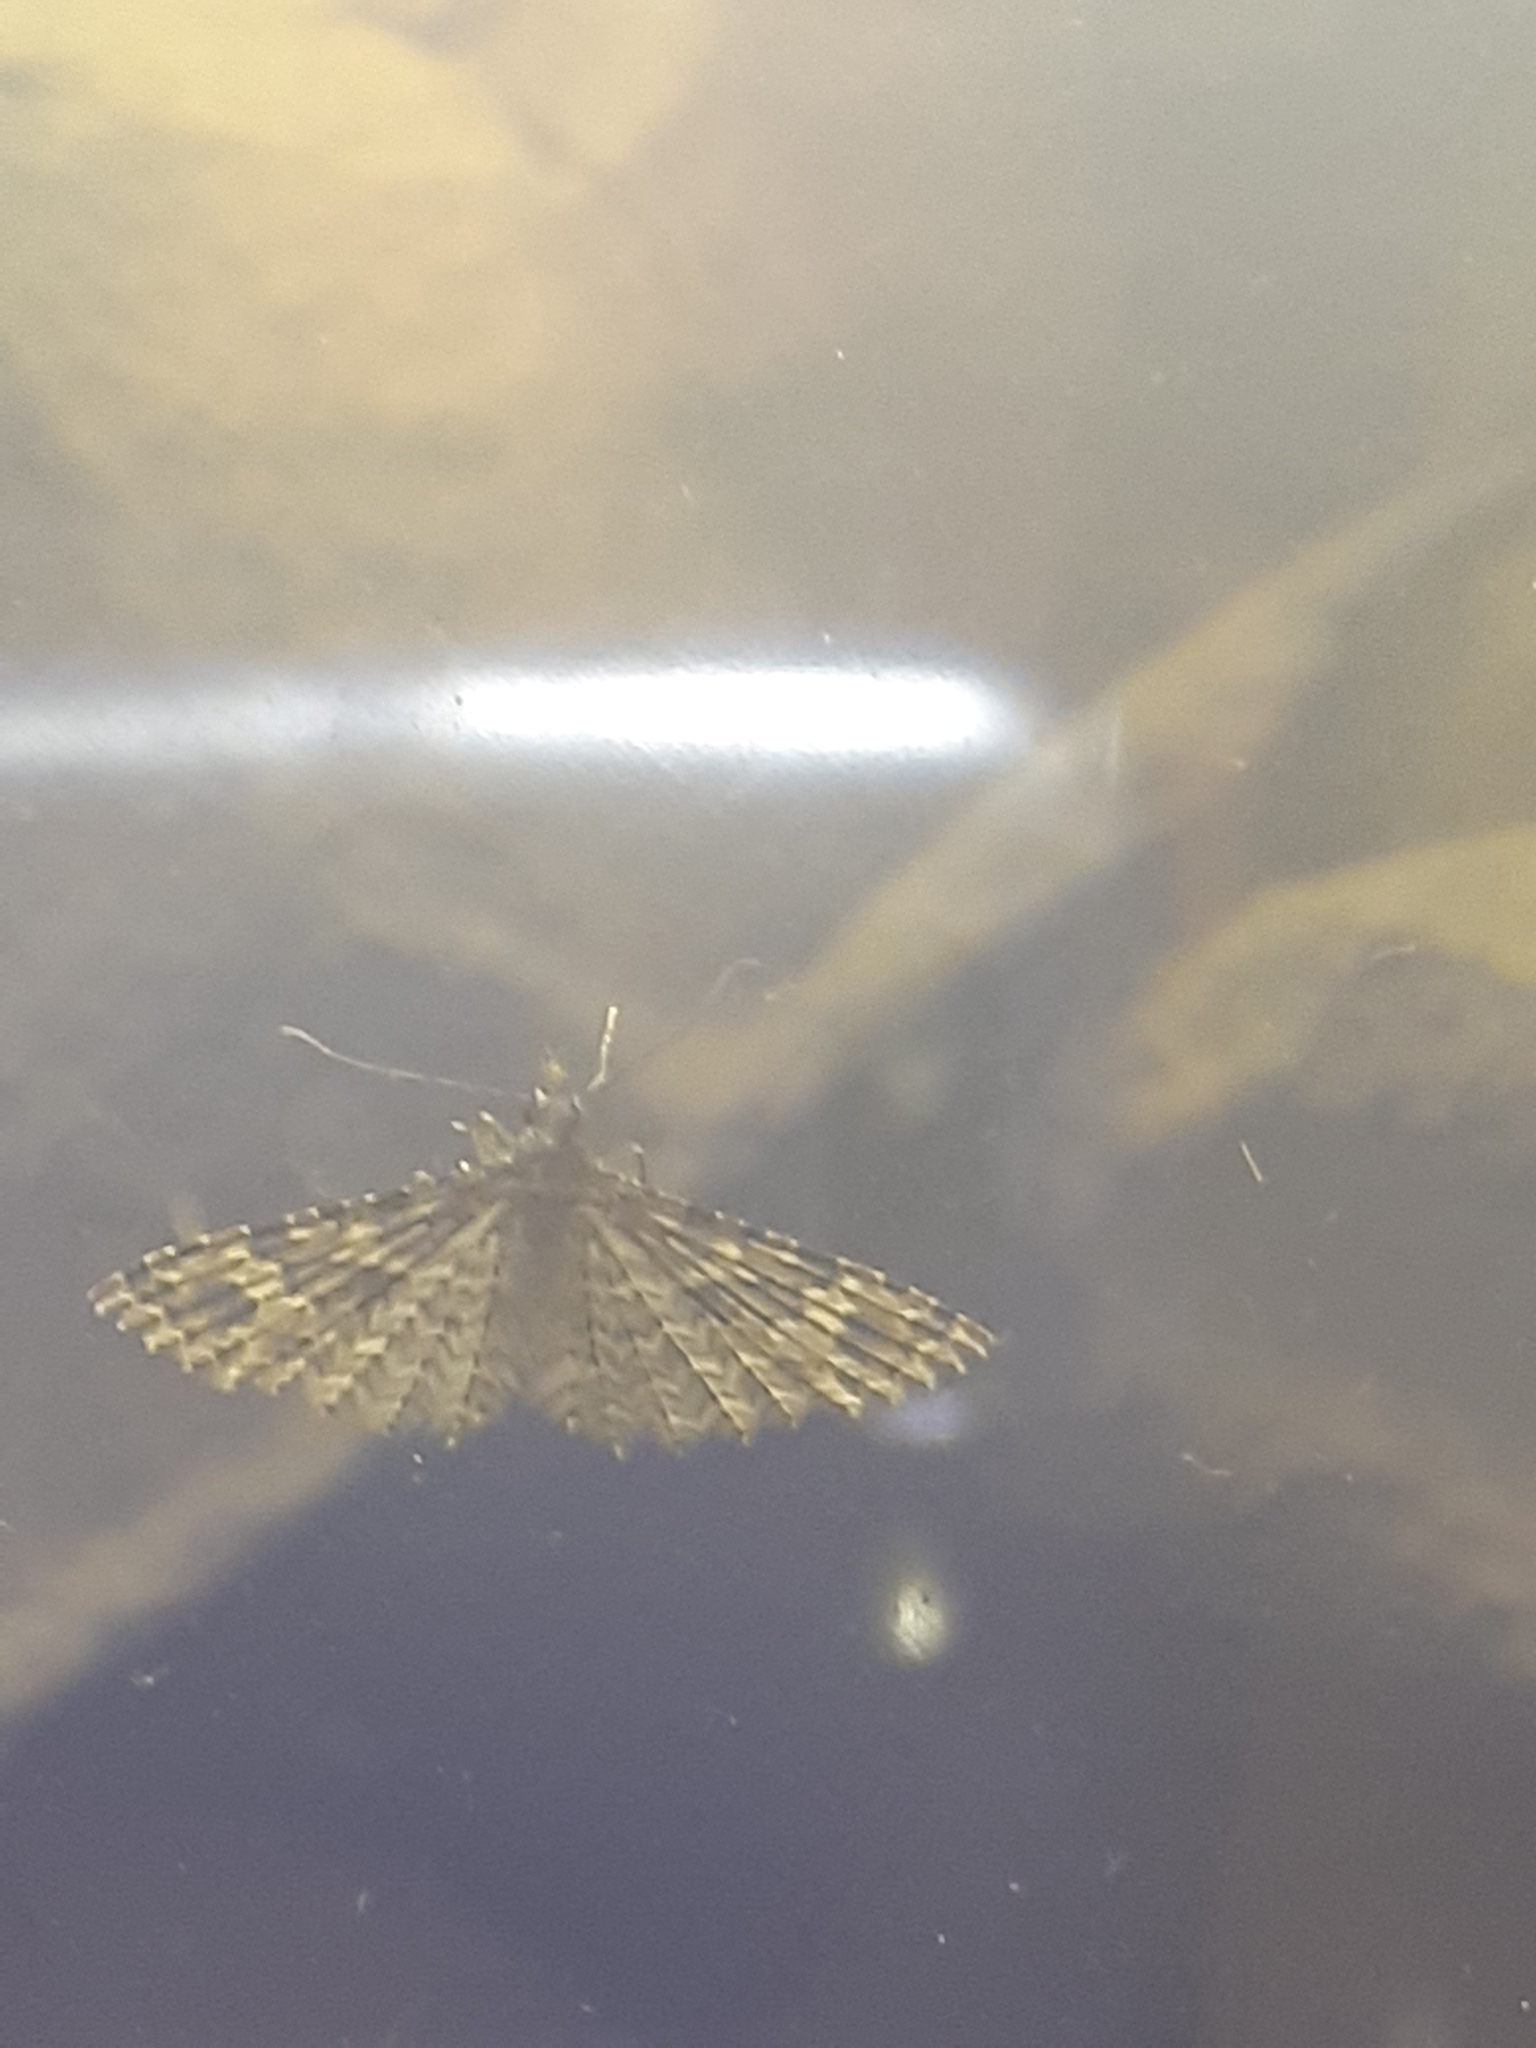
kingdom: Animalia
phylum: Arthropoda
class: Insecta
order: Lepidoptera
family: Alucitidae
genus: Alucita
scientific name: Alucita hexadactyla
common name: Twenty-plume moth
